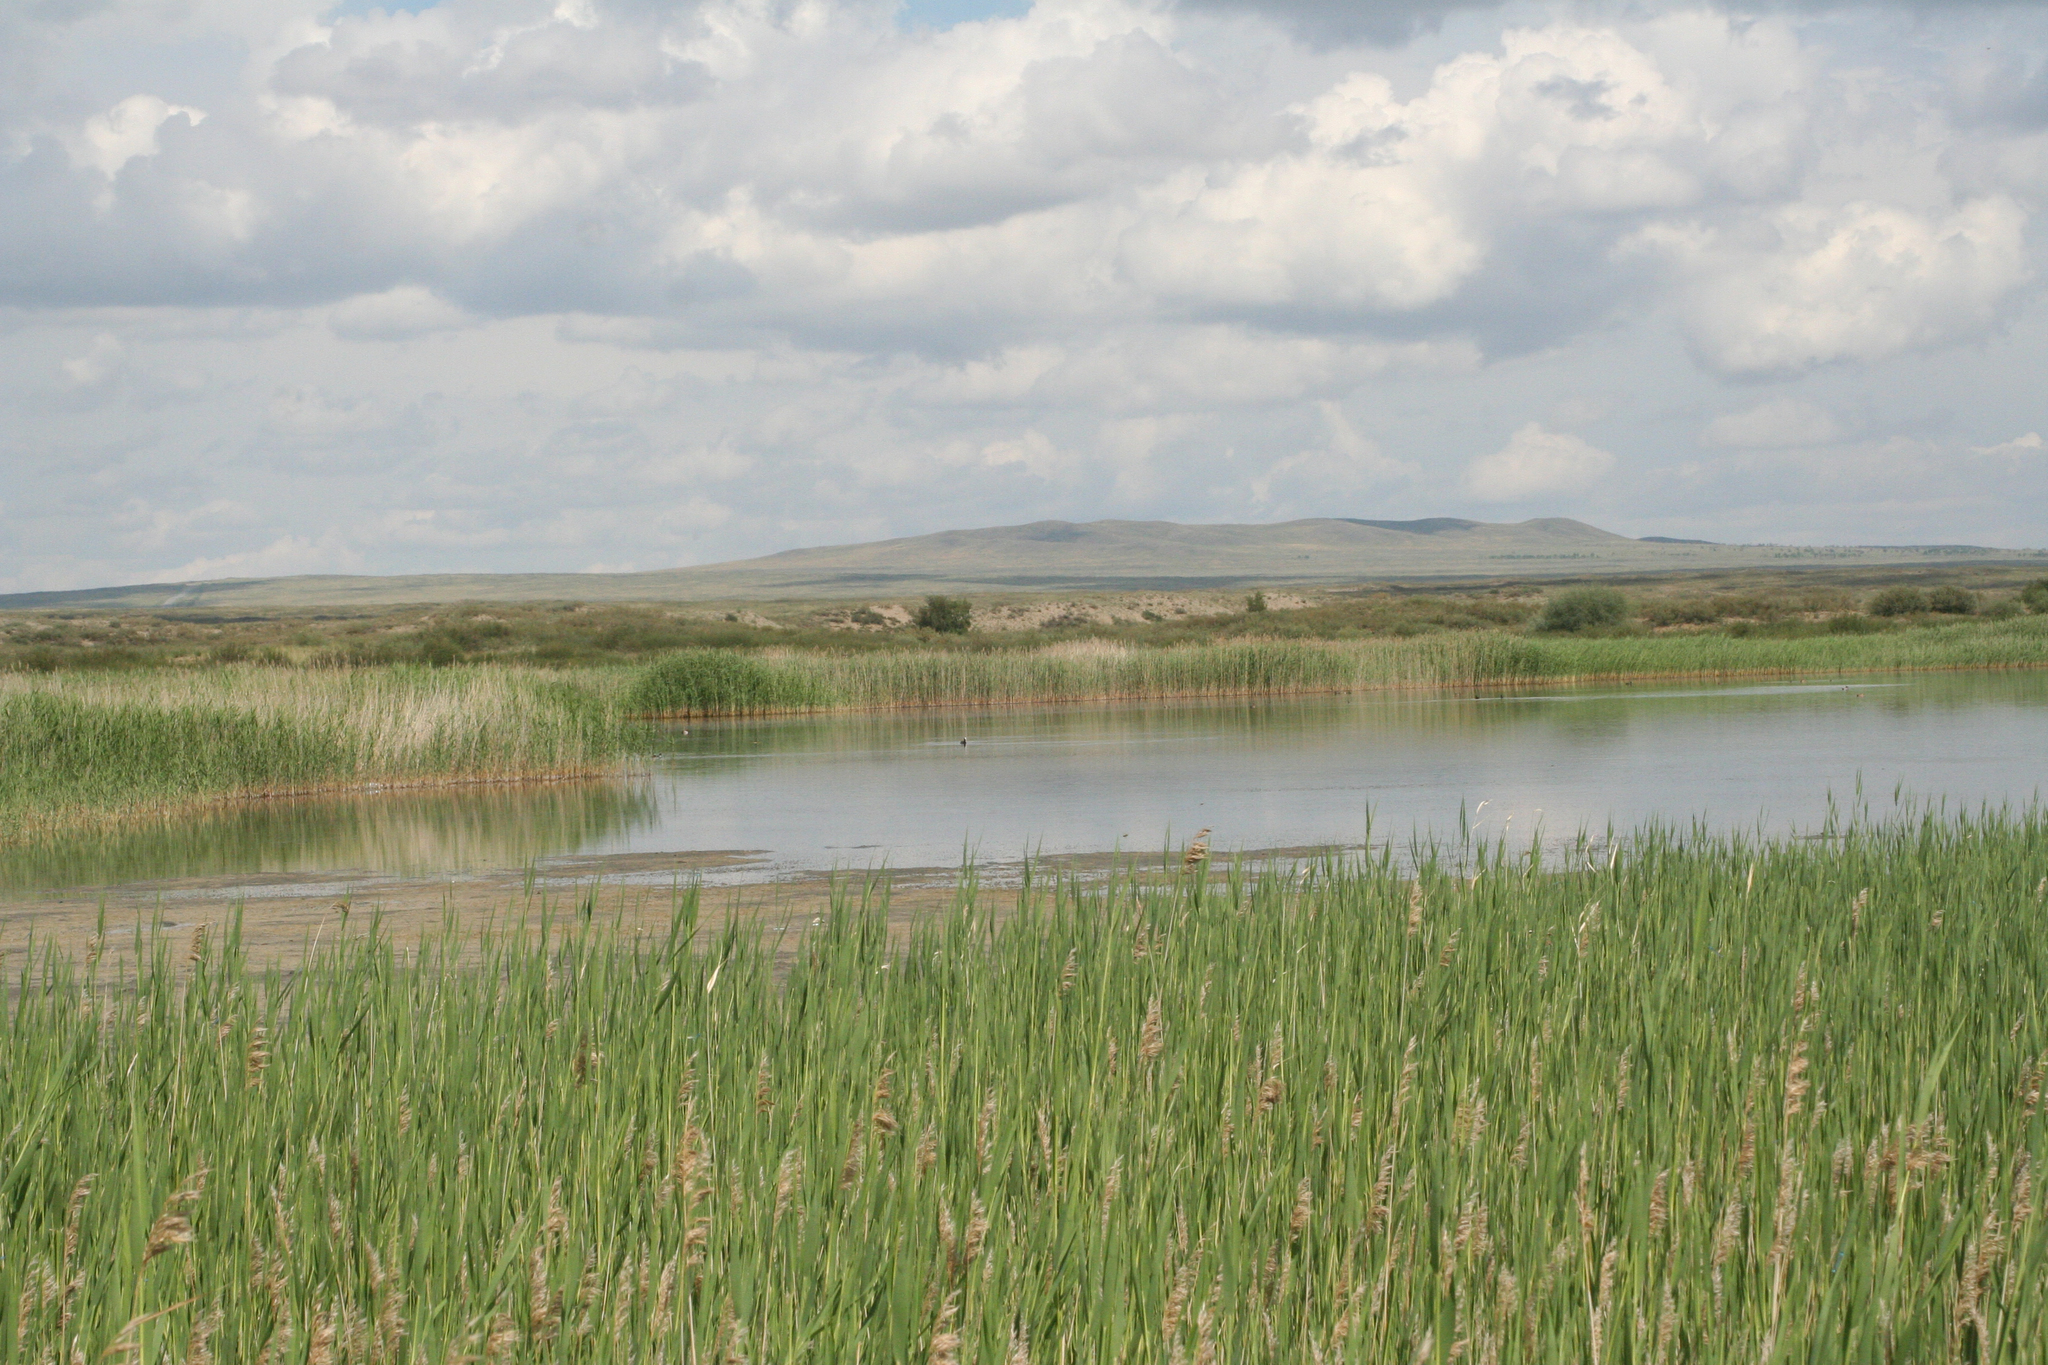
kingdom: Plantae
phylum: Tracheophyta
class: Liliopsida
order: Poales
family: Poaceae
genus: Phragmites
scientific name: Phragmites australis
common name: Common reed
